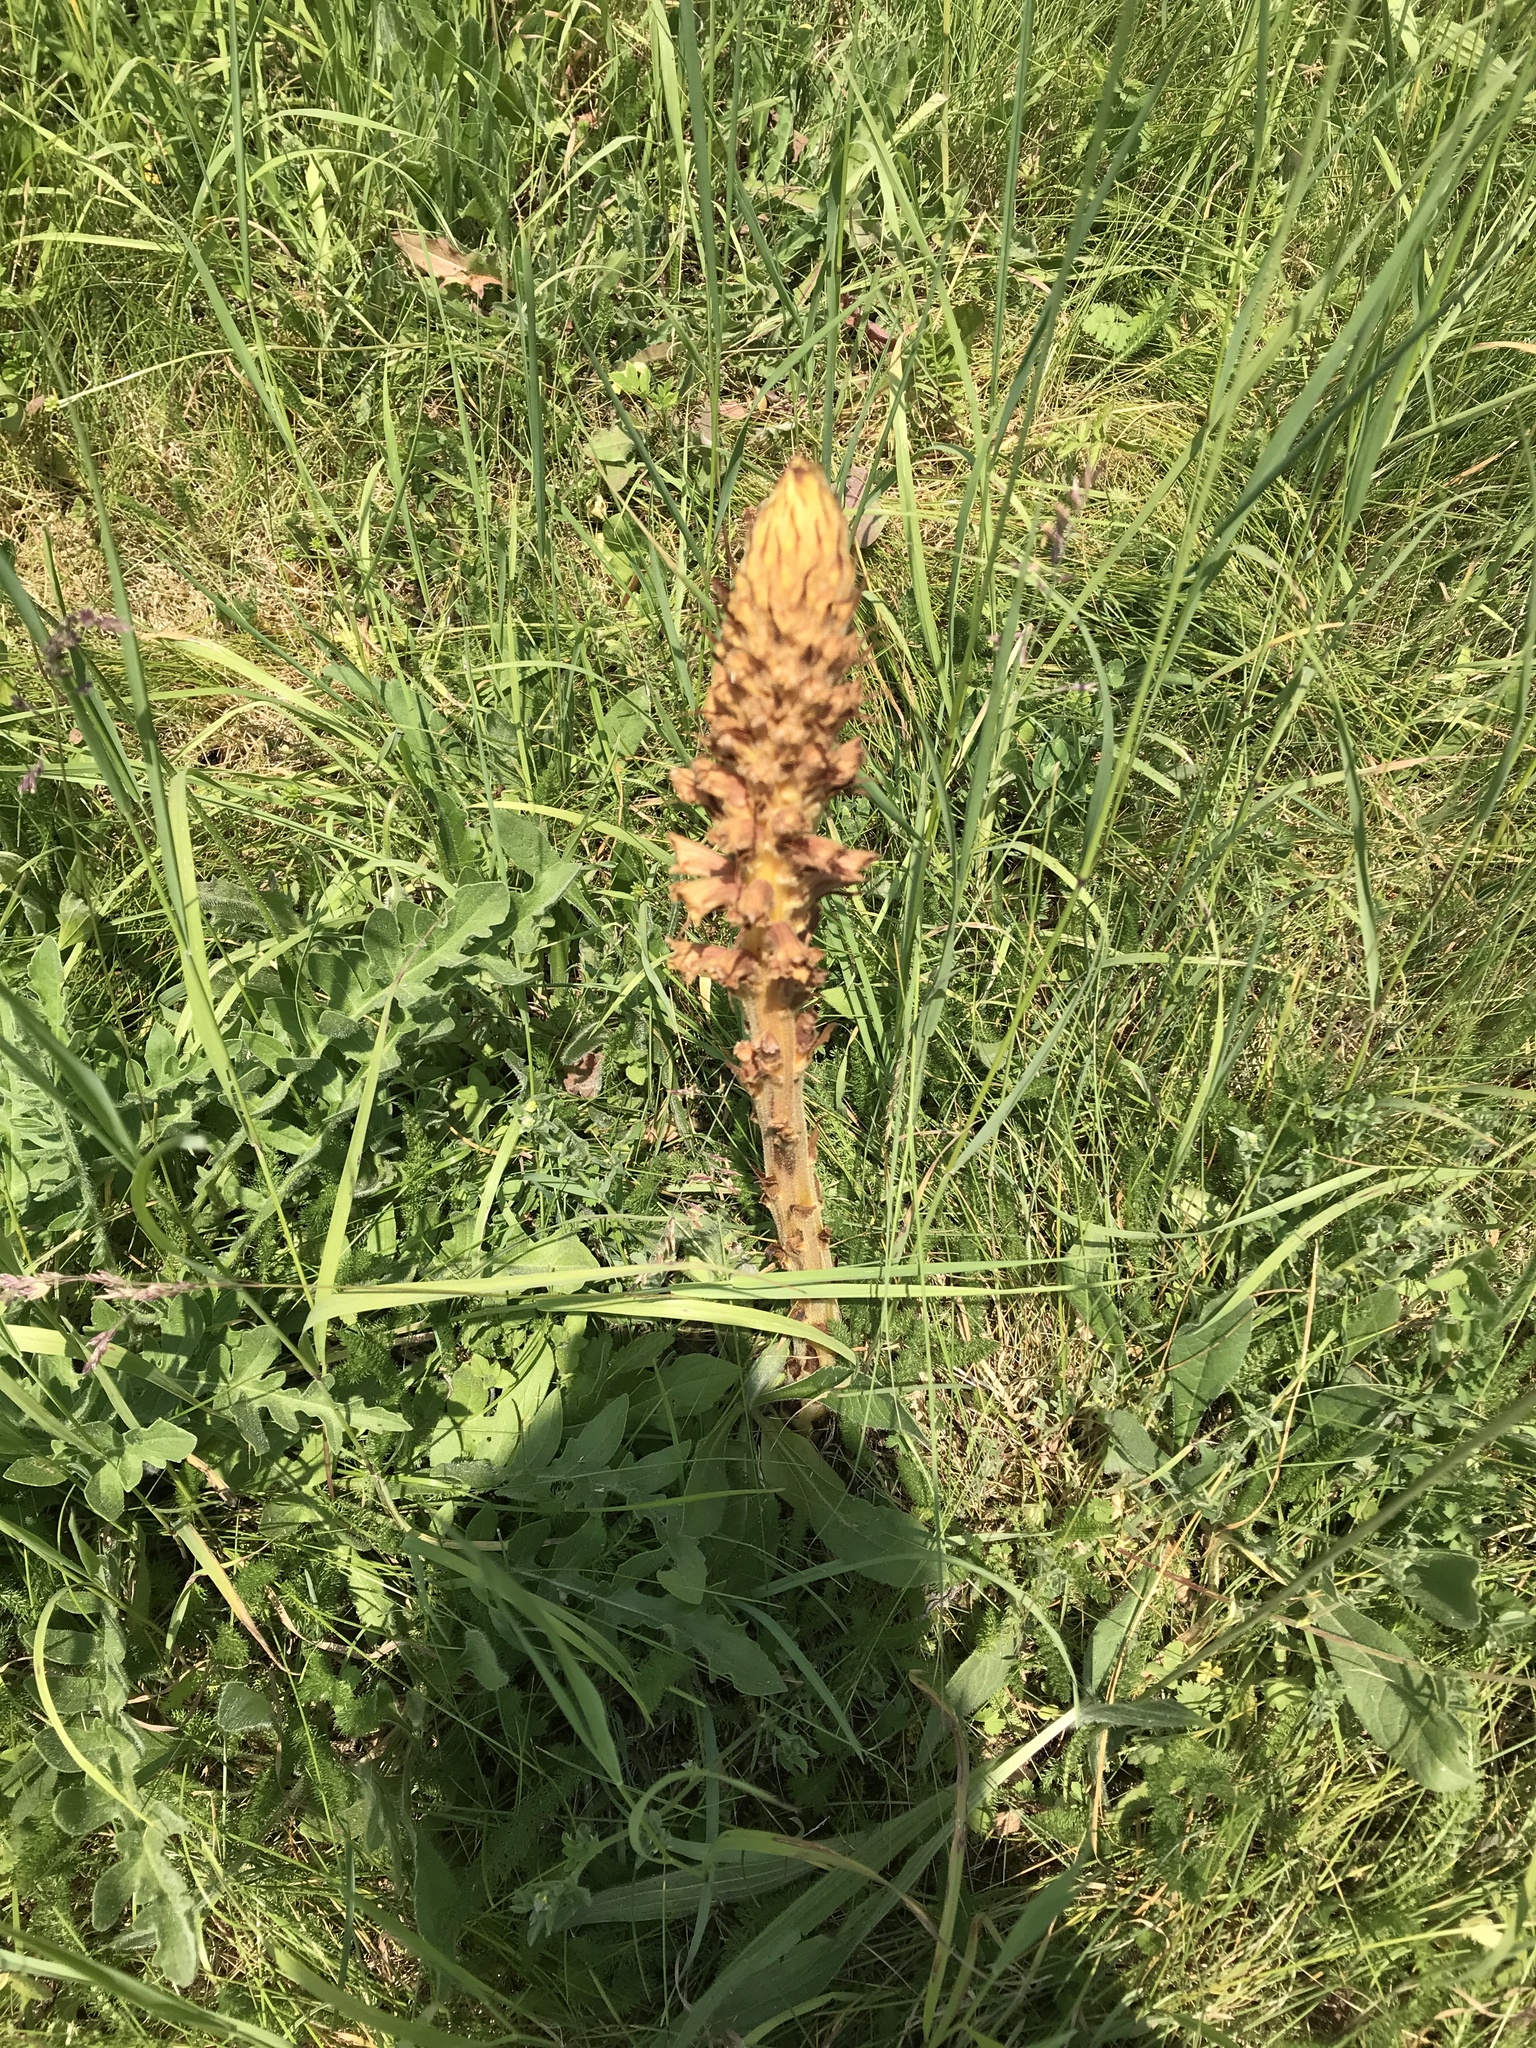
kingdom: Plantae
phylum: Tracheophyta
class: Magnoliopsida
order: Lamiales
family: Orobanchaceae
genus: Orobanche
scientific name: Orobanche elatior
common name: Knapweed broomrape
